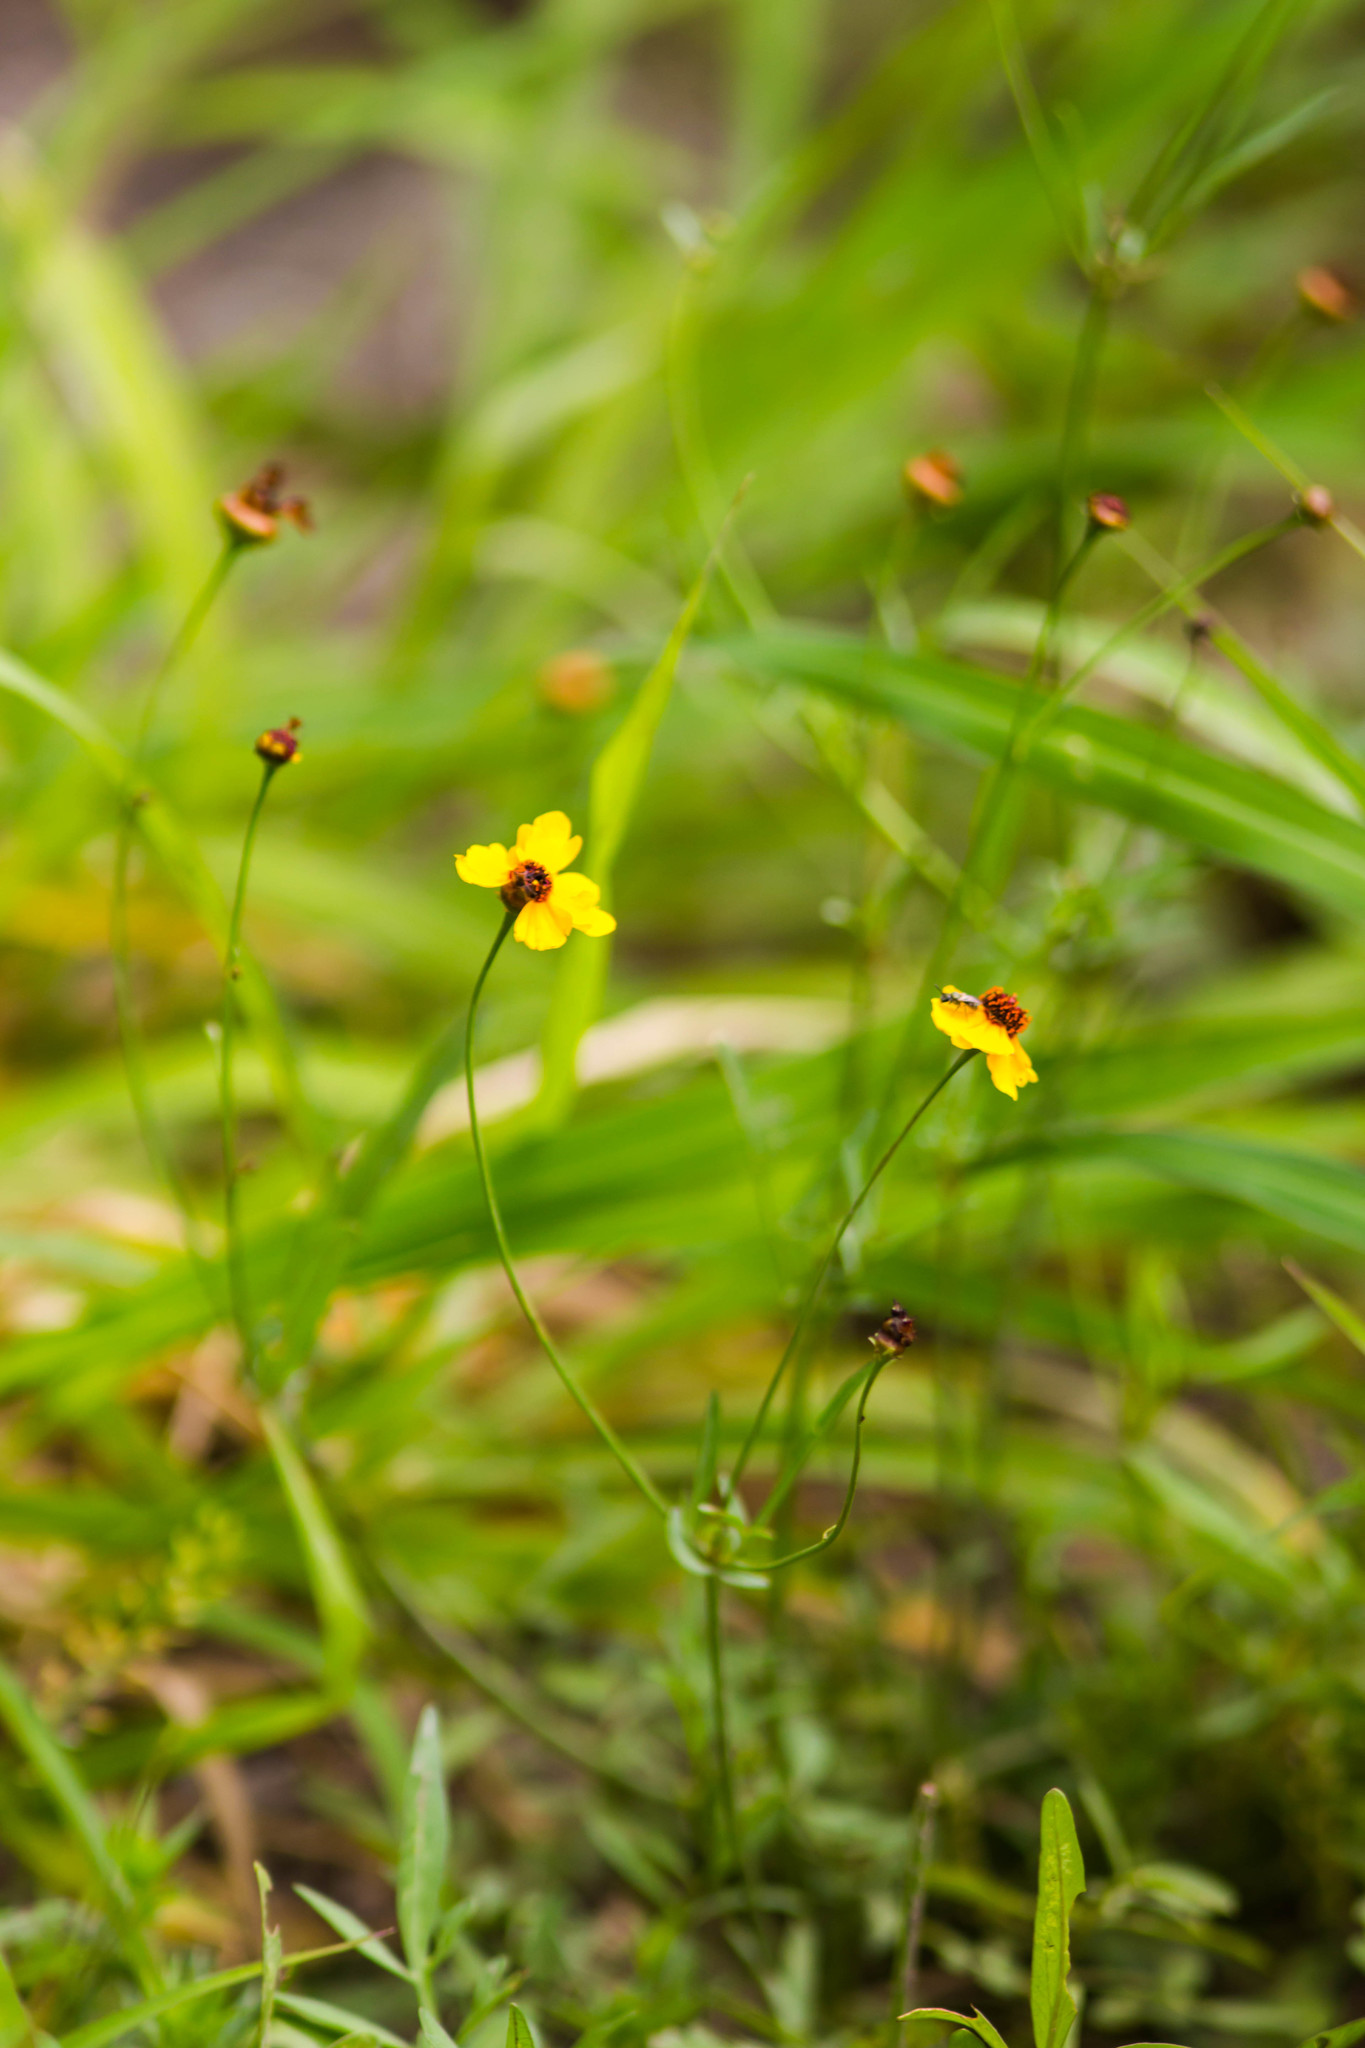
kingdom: Plantae
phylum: Tracheophyta
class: Magnoliopsida
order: Asterales
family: Asteraceae
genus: Coreopsis
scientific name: Coreopsis tinctoria
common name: Garden tickseed
